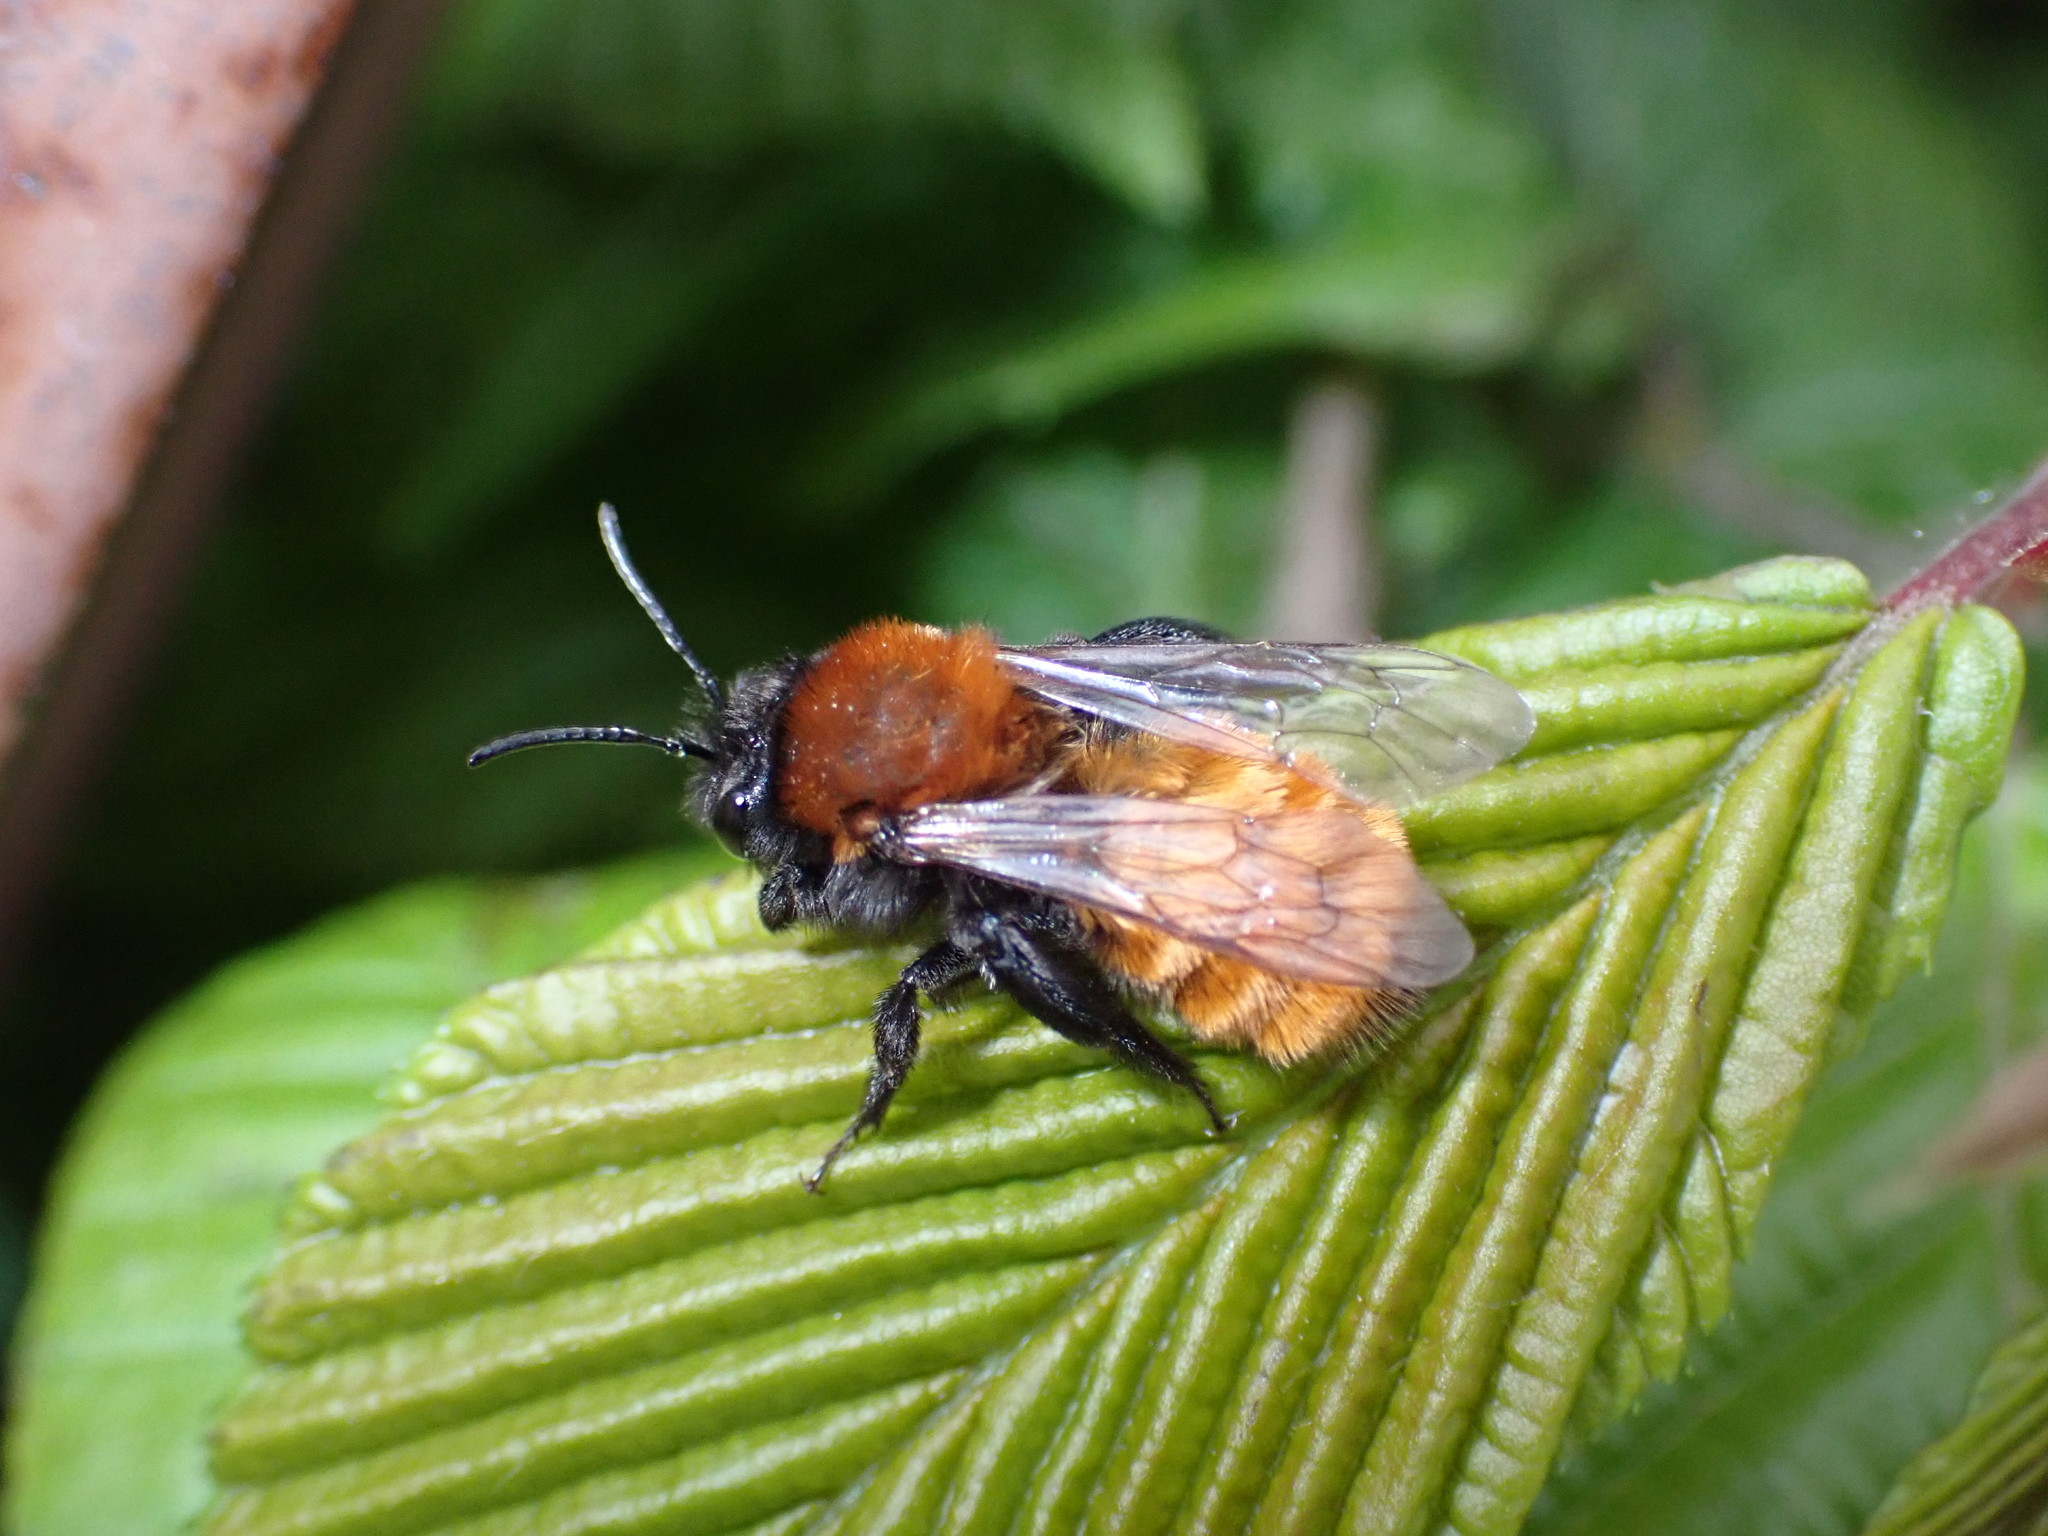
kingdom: Animalia
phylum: Arthropoda
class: Insecta
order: Hymenoptera
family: Andrenidae
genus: Andrena
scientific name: Andrena fulva
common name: Tawny mining bee
